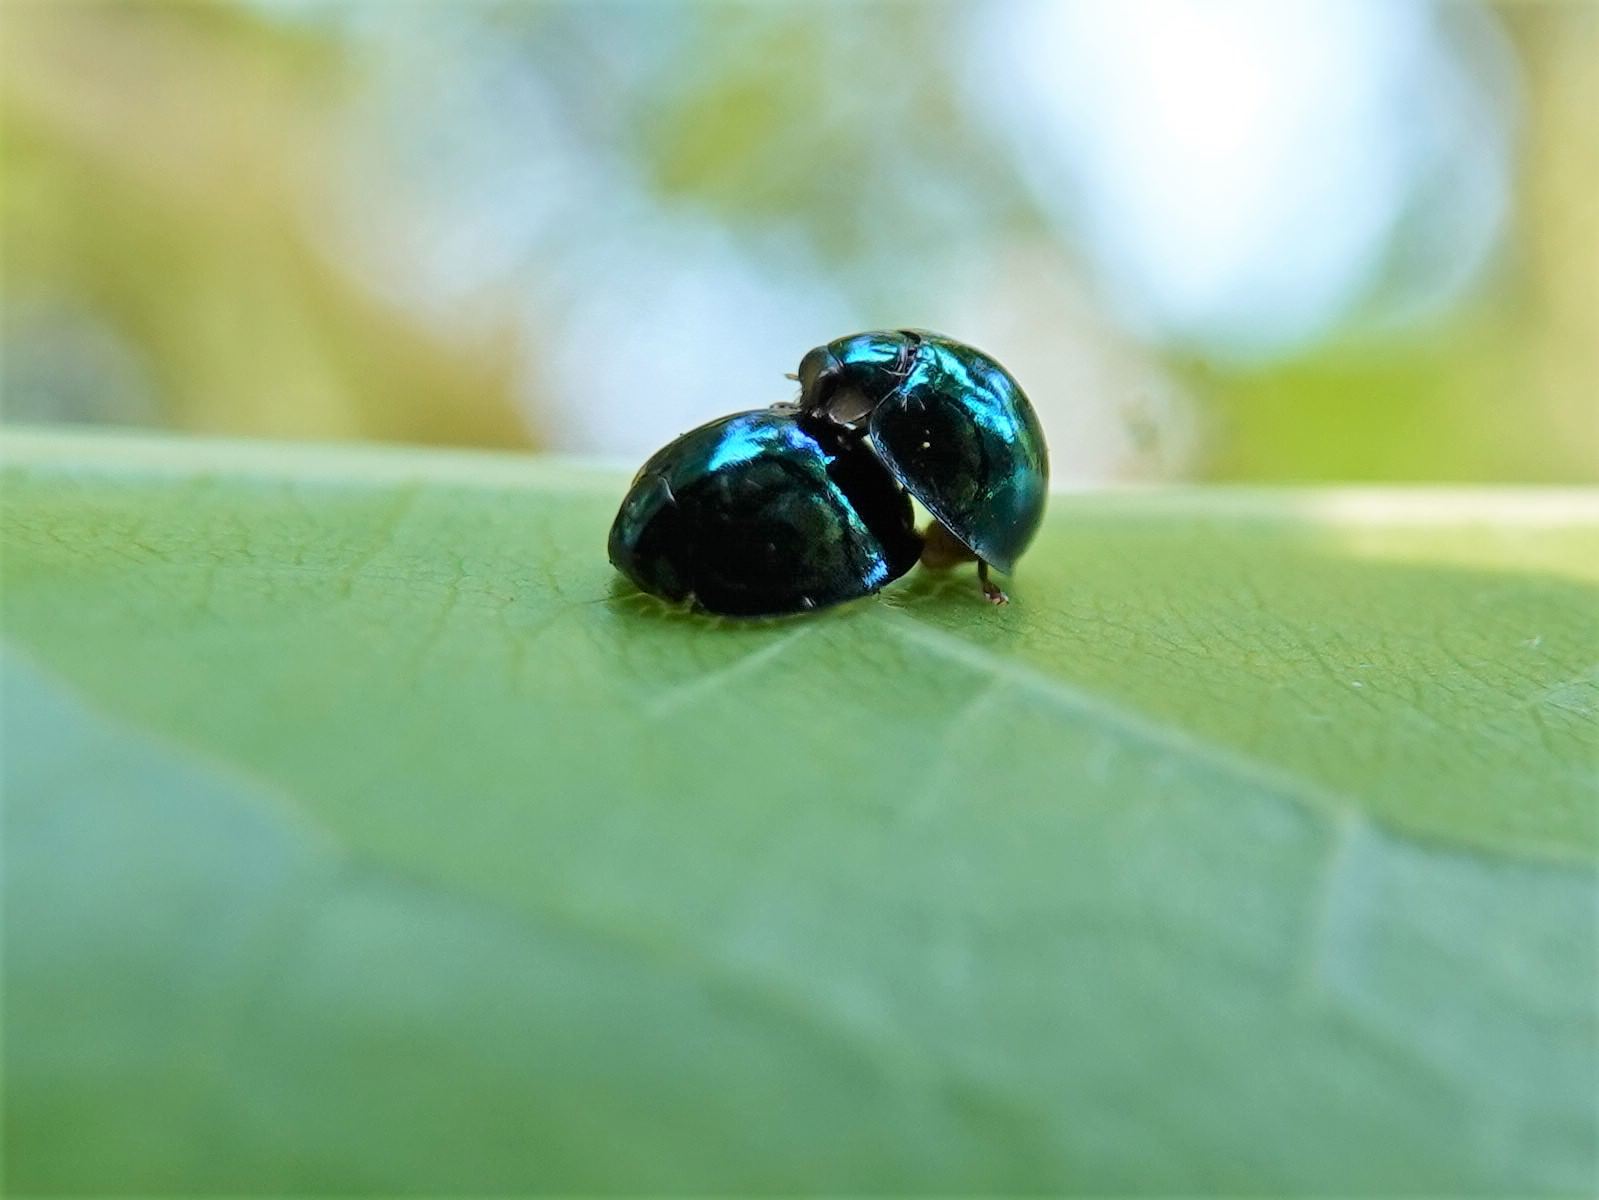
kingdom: Animalia
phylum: Arthropoda
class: Insecta
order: Coleoptera
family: Coccinellidae
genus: Halmus
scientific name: Halmus chalybeus
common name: Steel blue ladybird beetle
